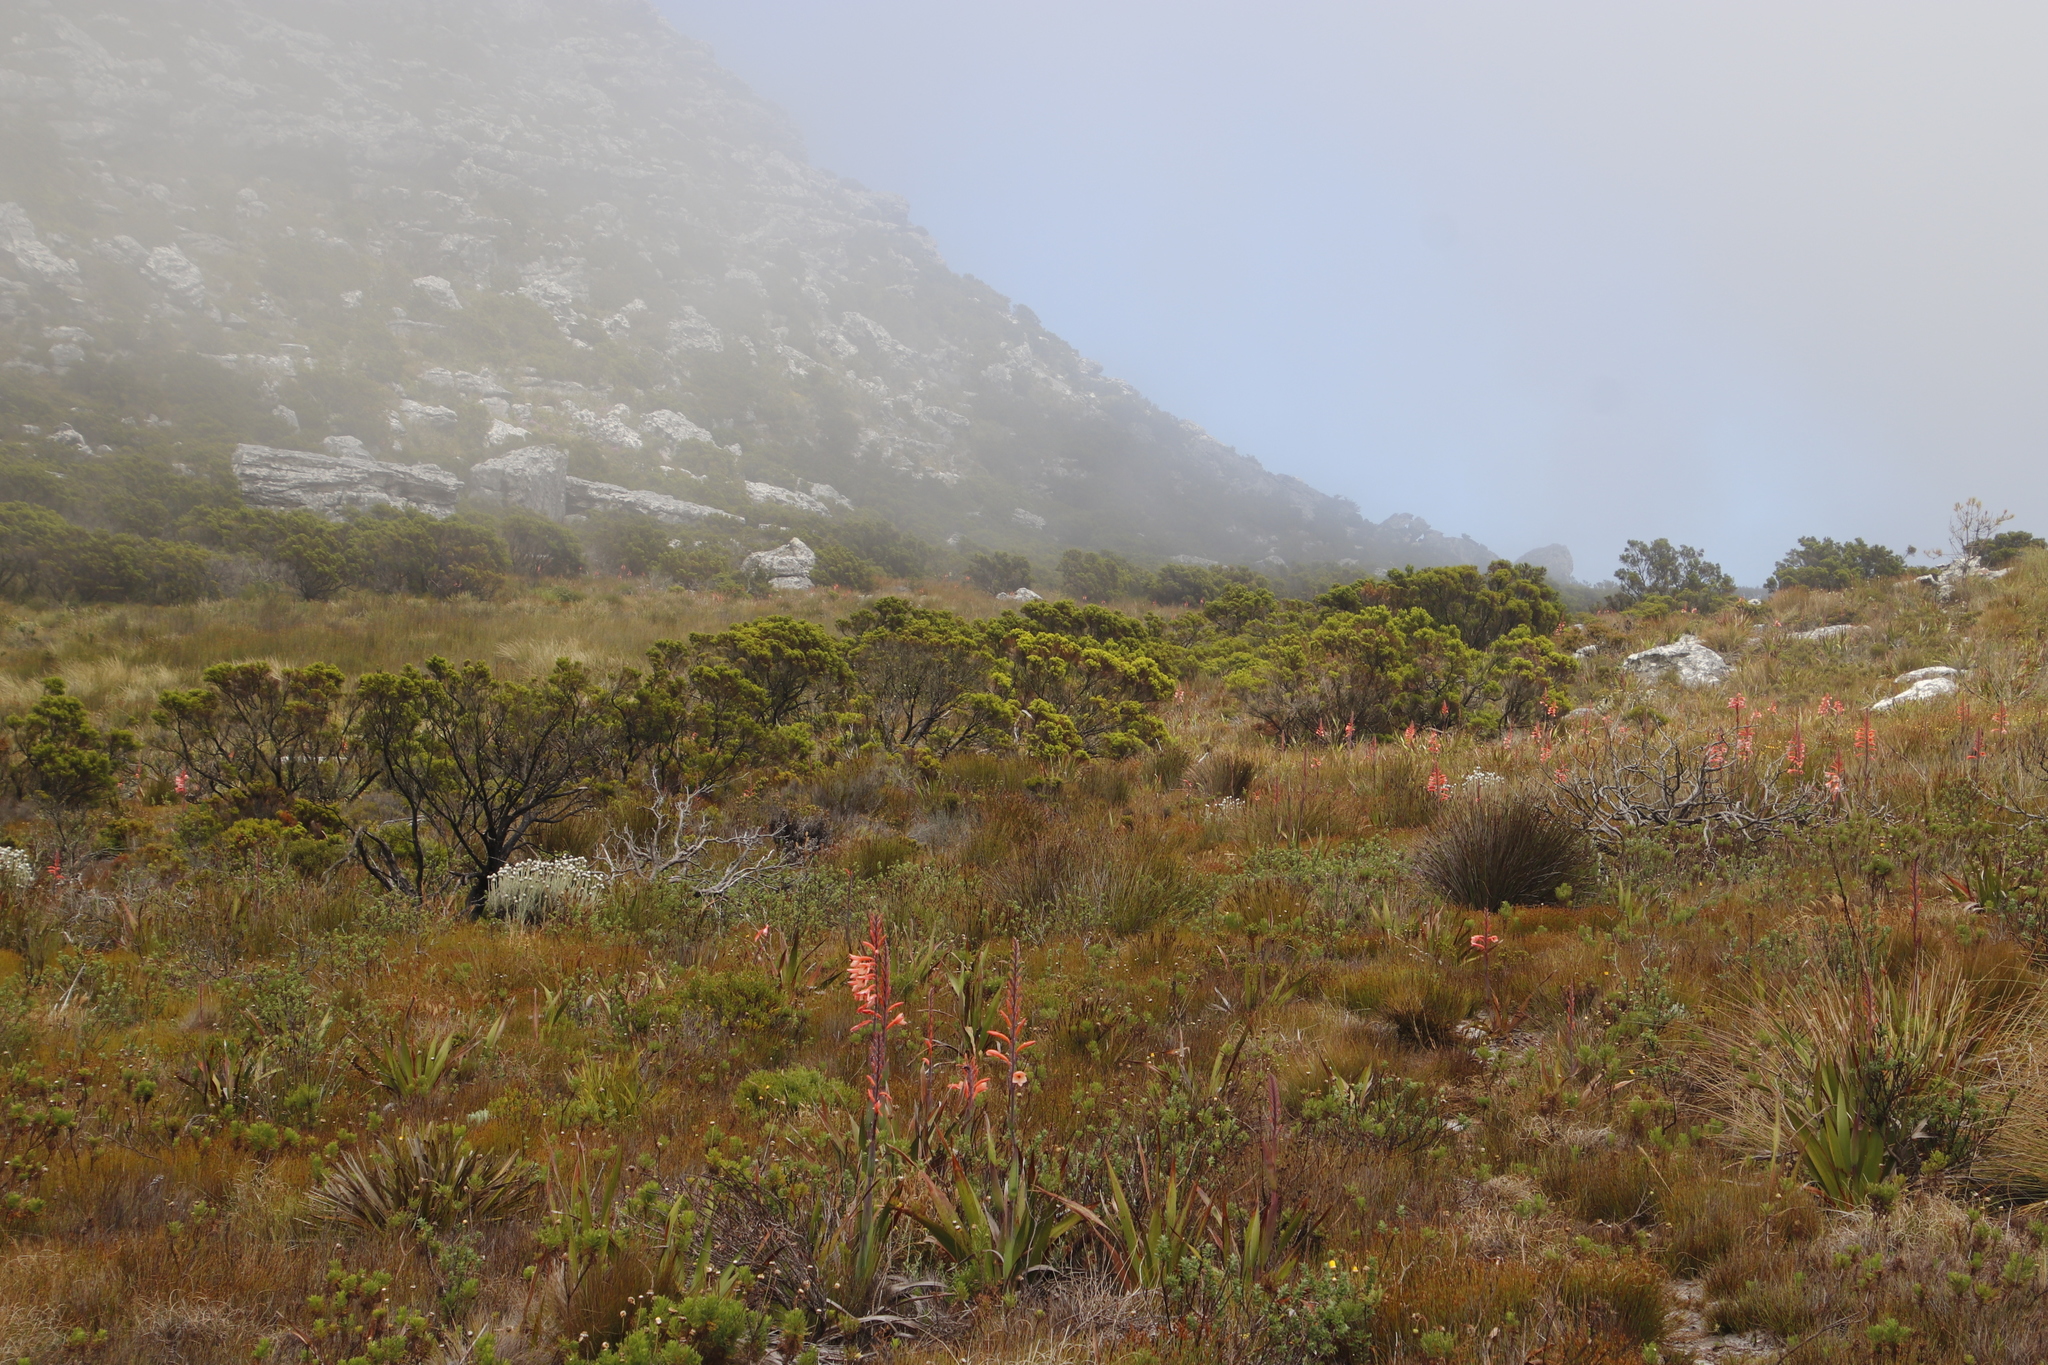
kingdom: Plantae
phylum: Tracheophyta
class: Magnoliopsida
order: Ericales
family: Ericaceae
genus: Erica
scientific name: Erica tristis
